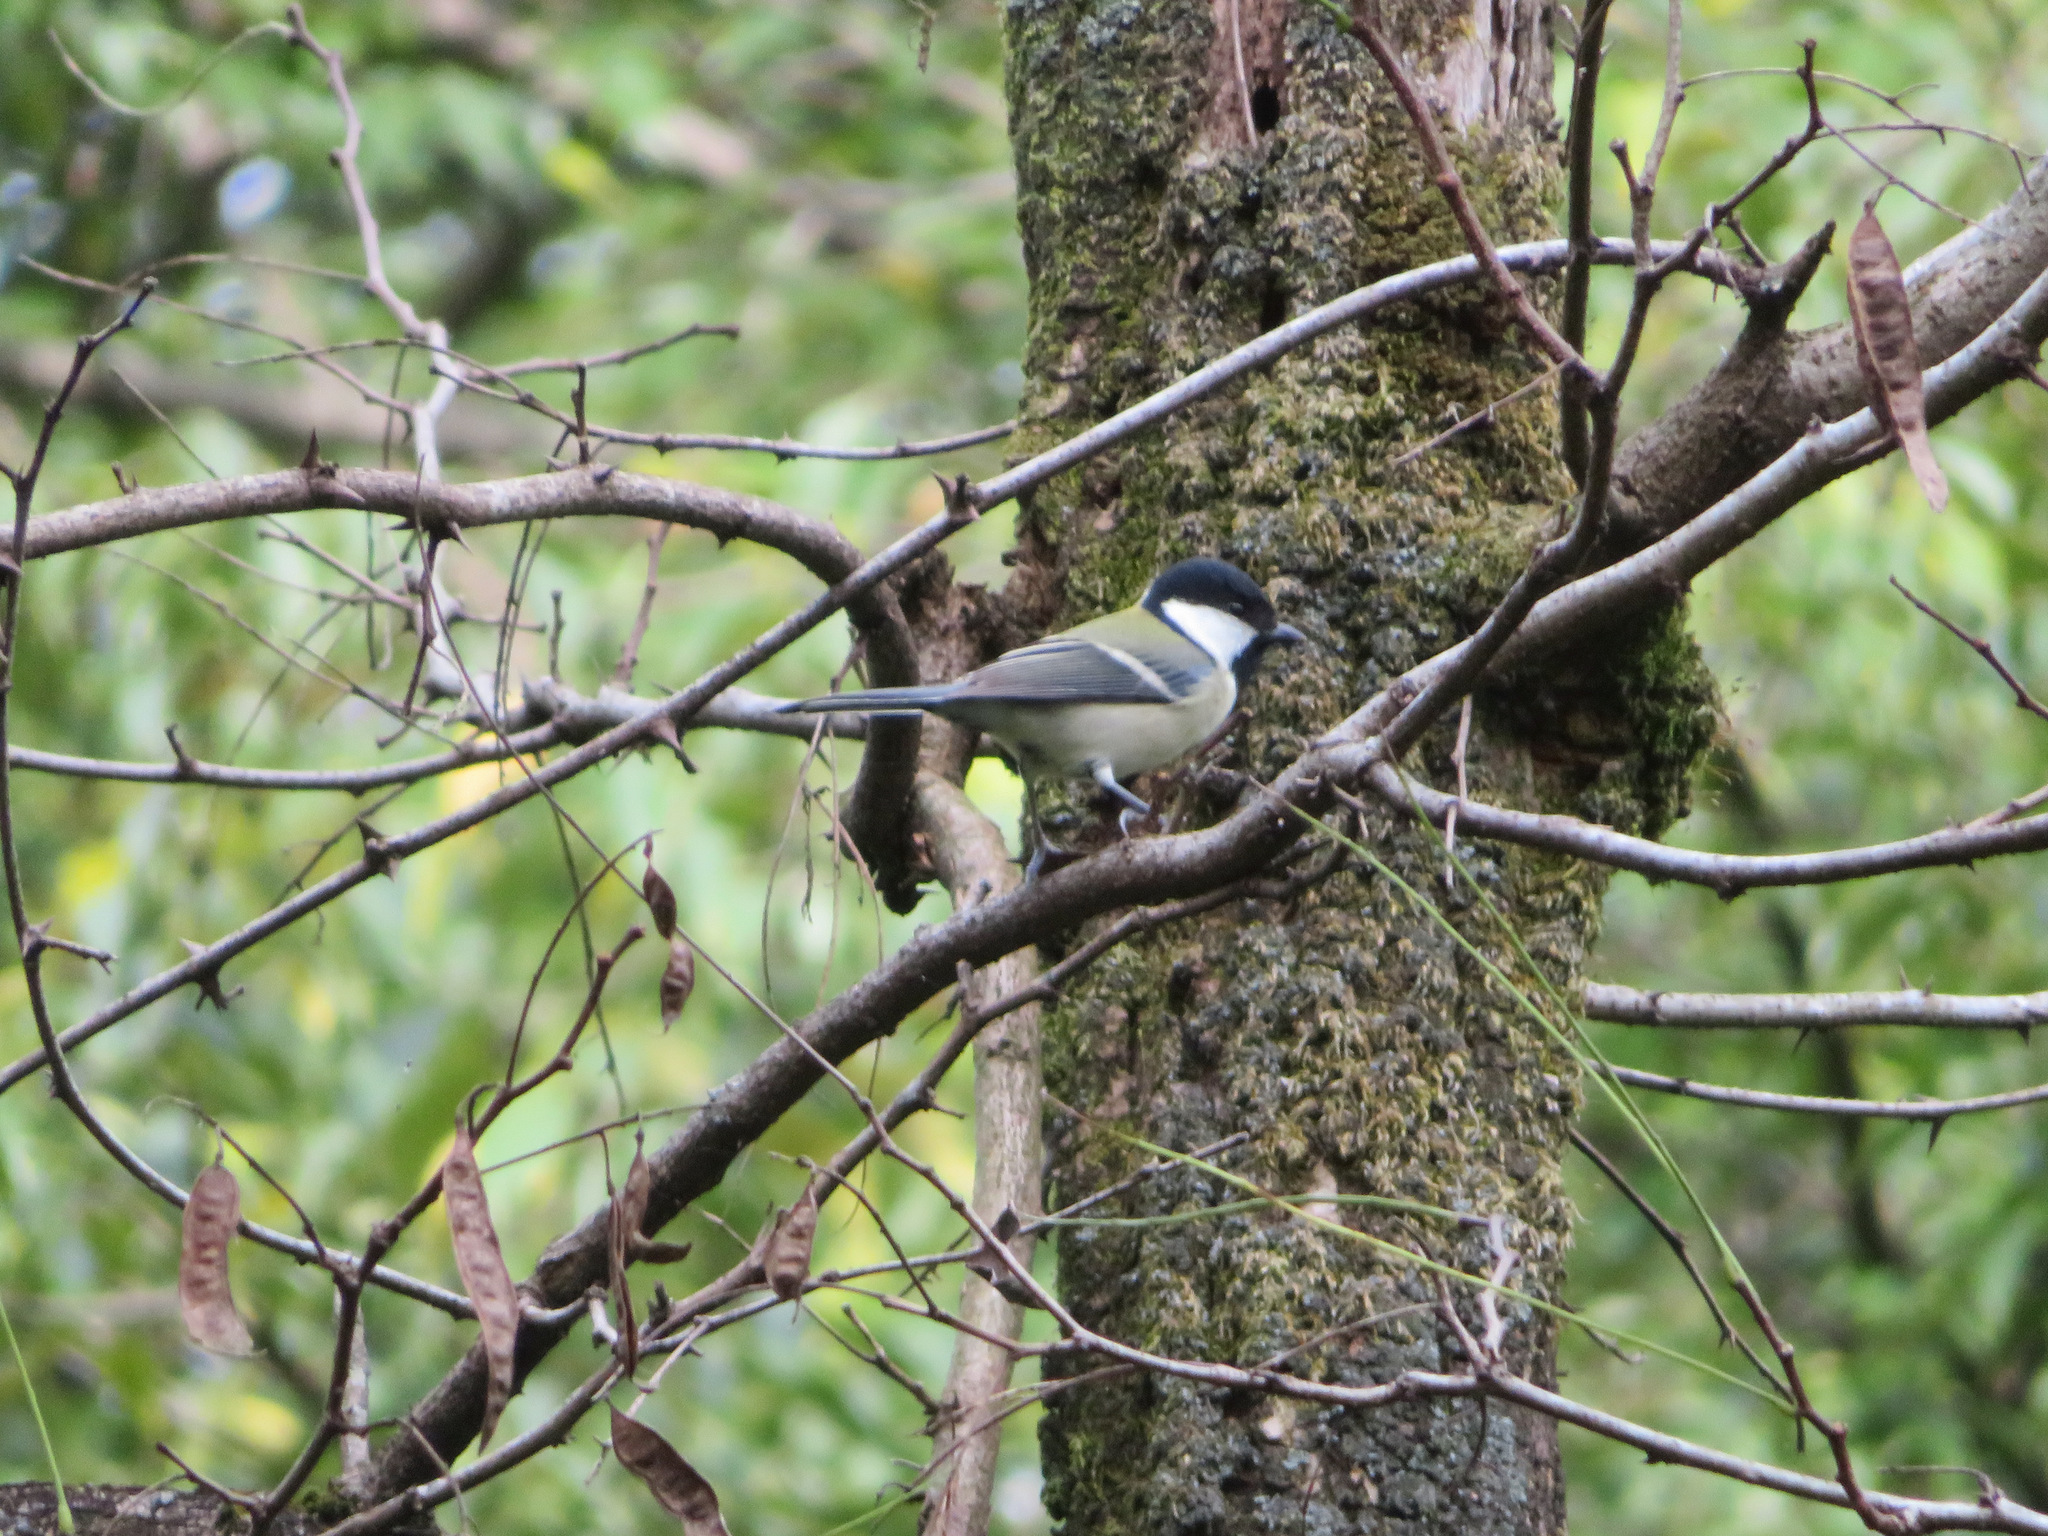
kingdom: Animalia
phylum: Chordata
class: Aves
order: Passeriformes
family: Paridae
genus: Parus
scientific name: Parus minor
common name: Japanese tit
